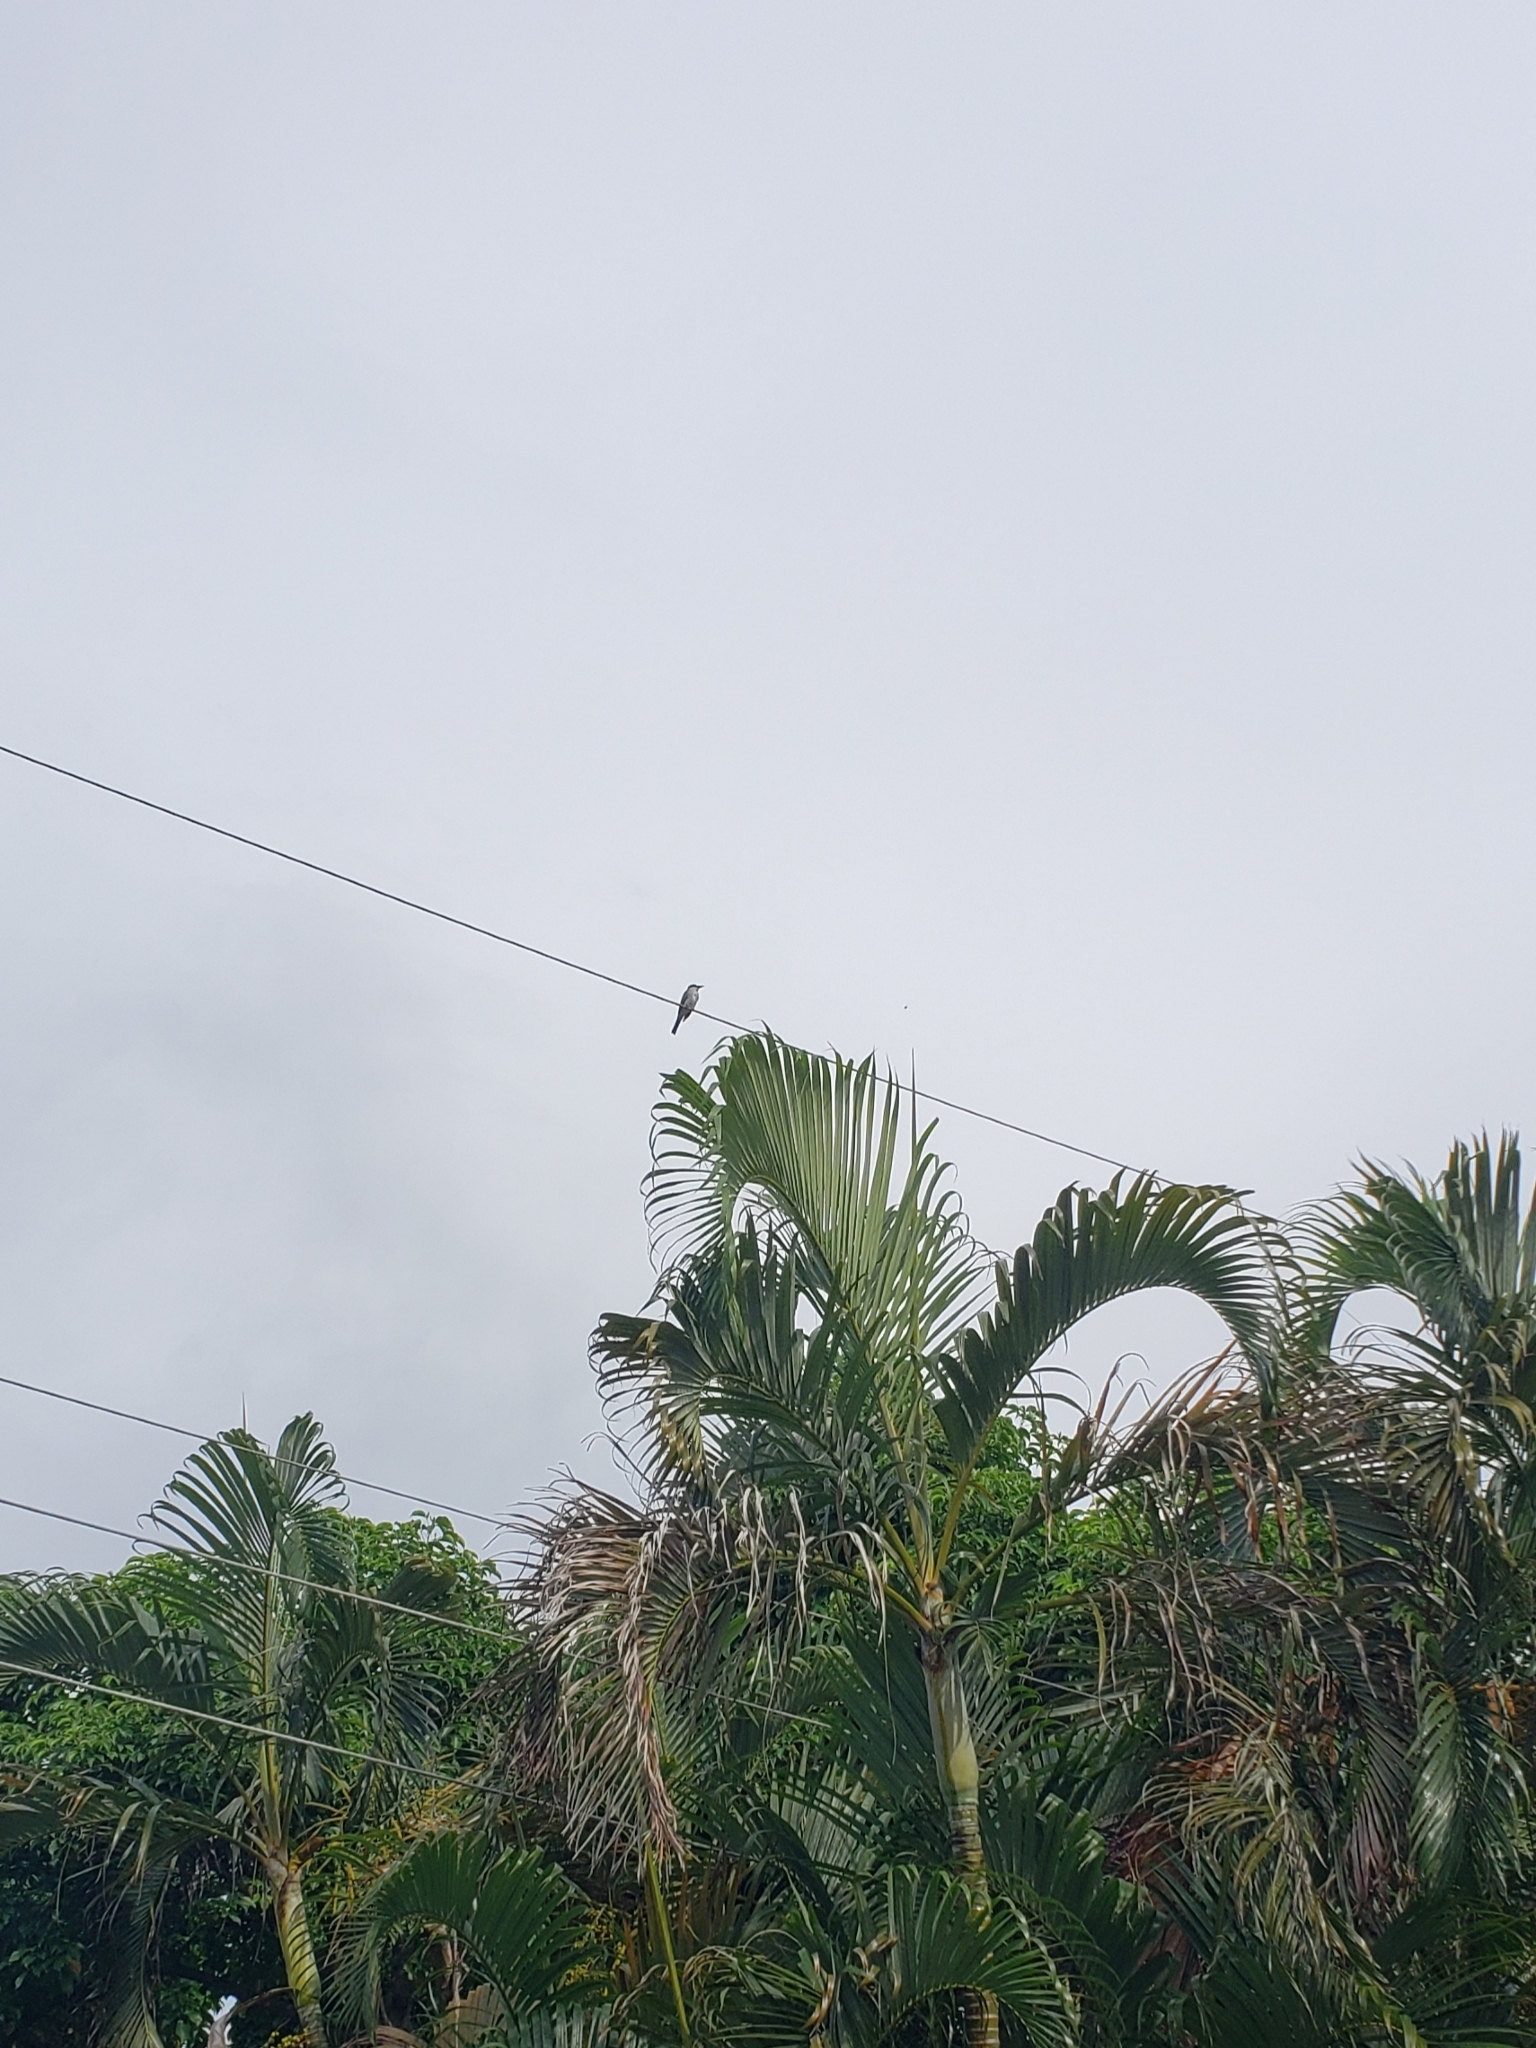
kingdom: Animalia
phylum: Chordata
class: Aves
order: Passeriformes
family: Tyrannidae
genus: Tyrannus
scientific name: Tyrannus dominicensis
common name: Gray kingbird
